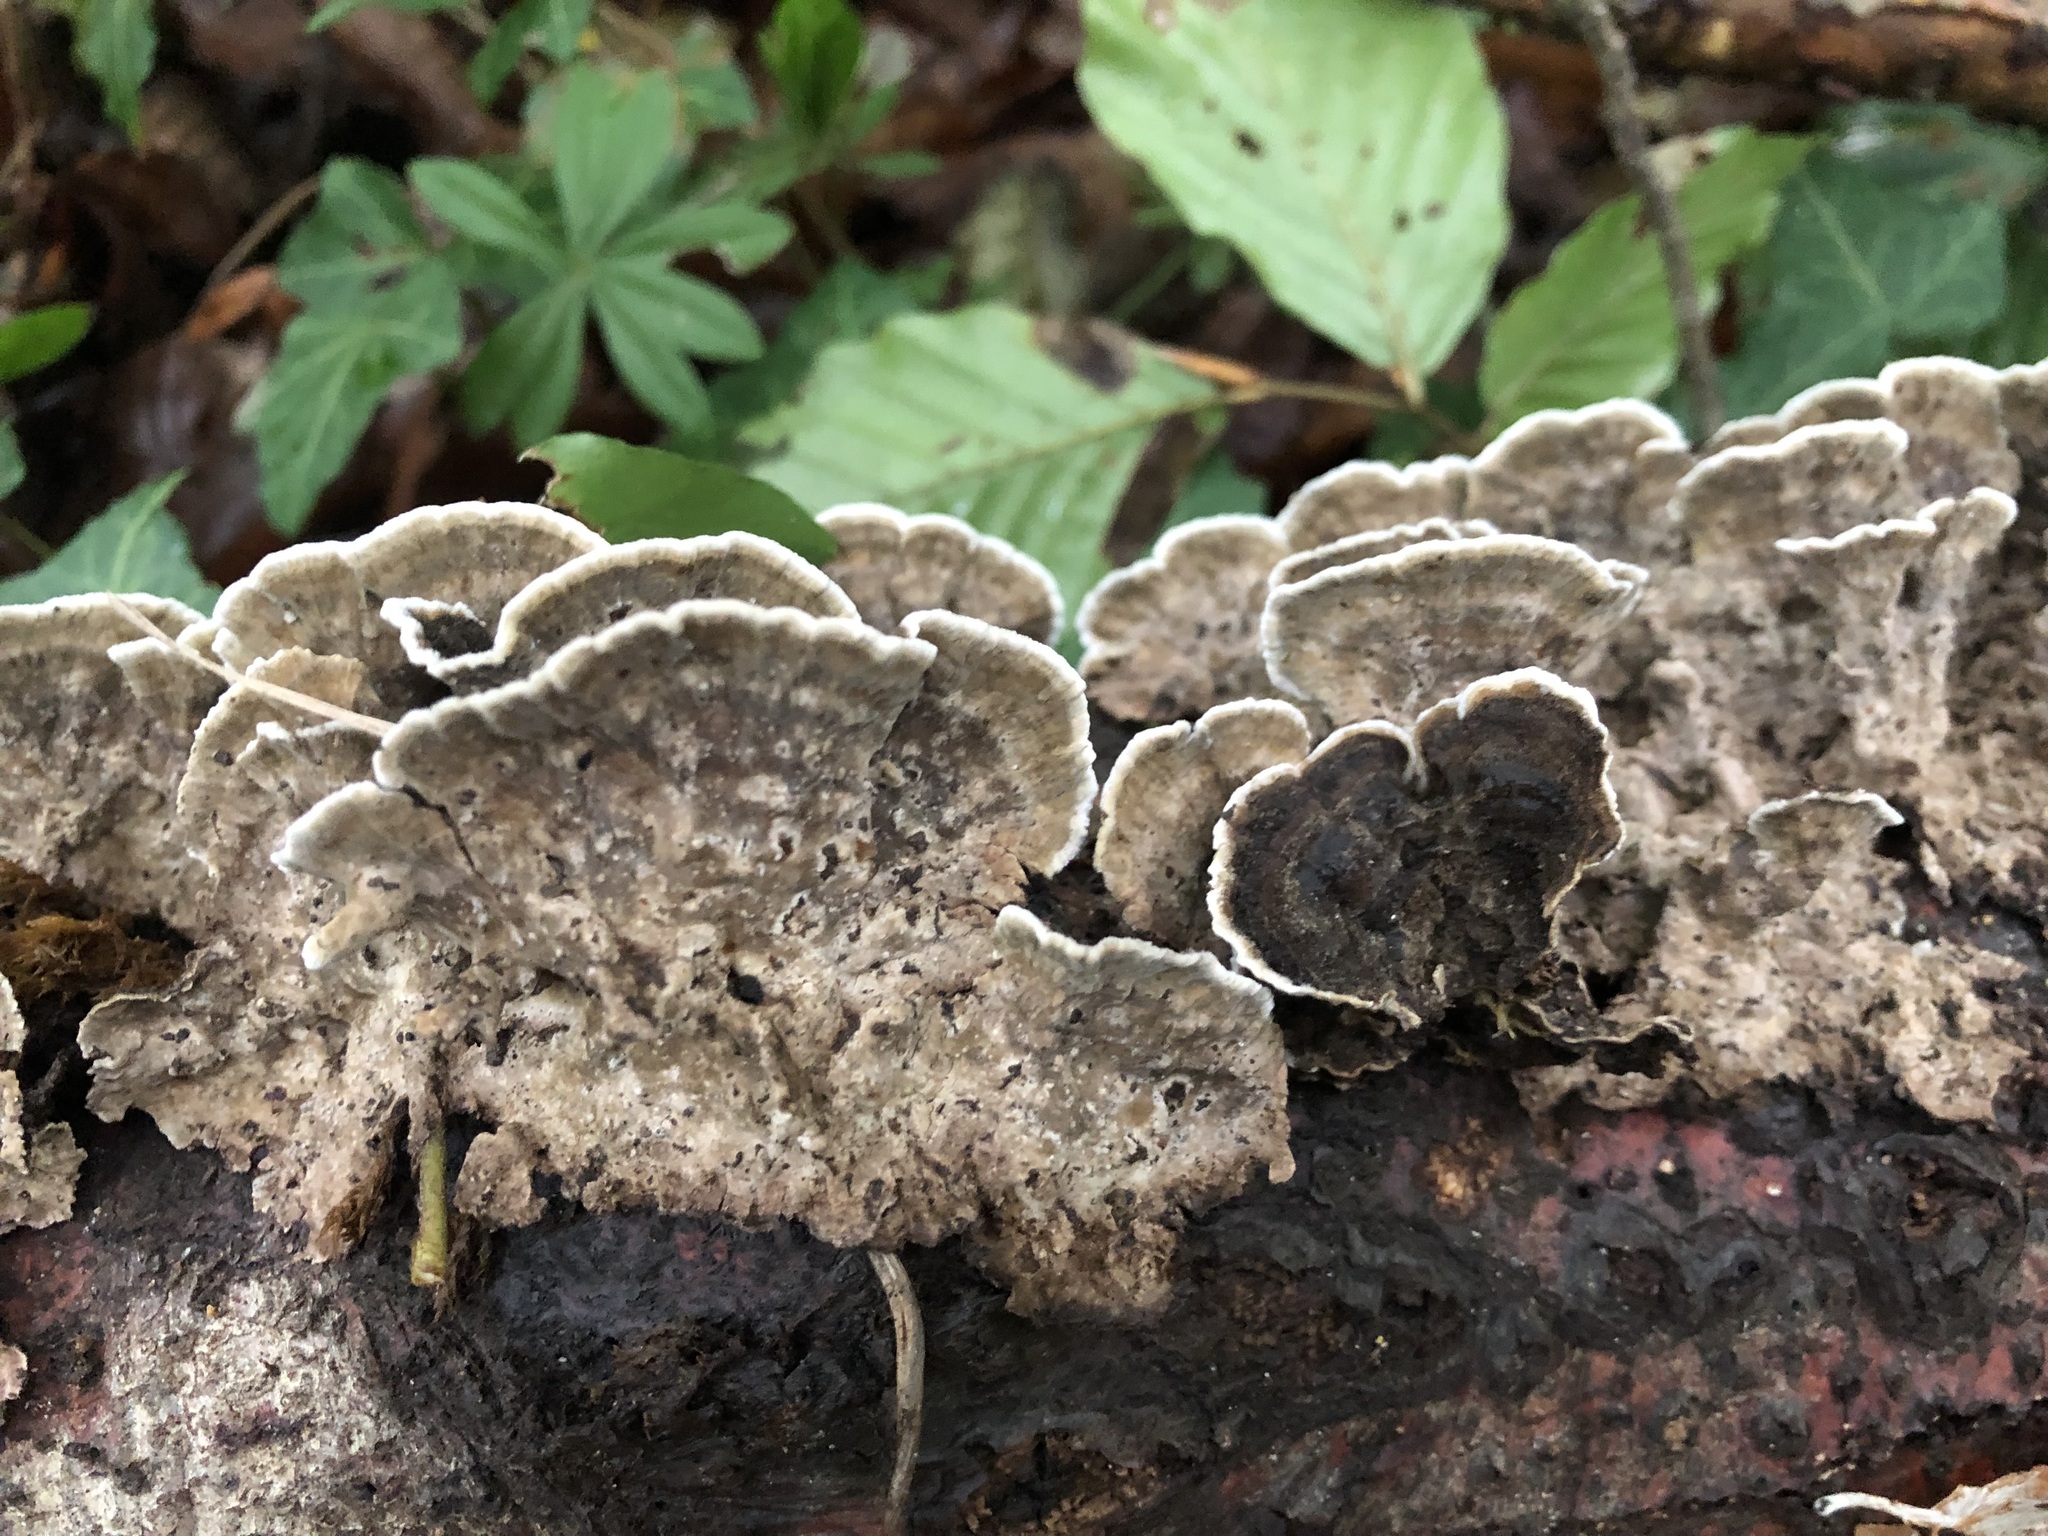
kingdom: Fungi
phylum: Basidiomycota
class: Agaricomycetes
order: Polyporales
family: Phanerochaetaceae
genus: Porostereum
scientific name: Porostereum spadiceum
